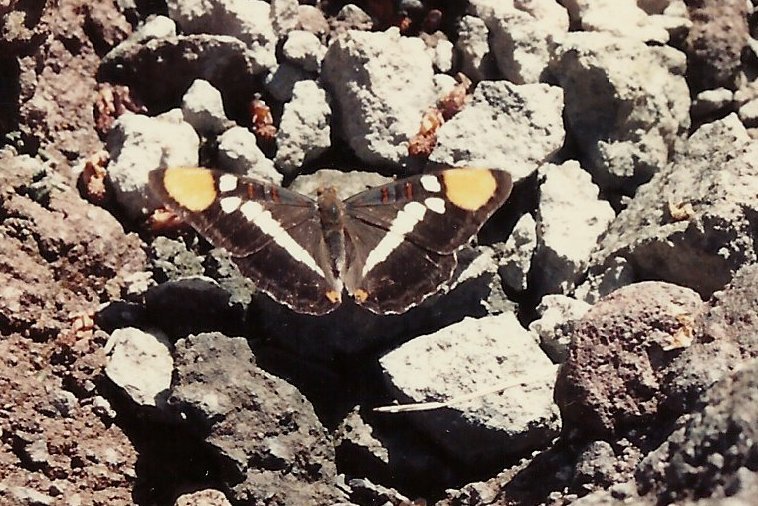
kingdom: Animalia
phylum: Arthropoda
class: Insecta
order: Lepidoptera
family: Nymphalidae
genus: Limenitis
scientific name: Limenitis bredowii
